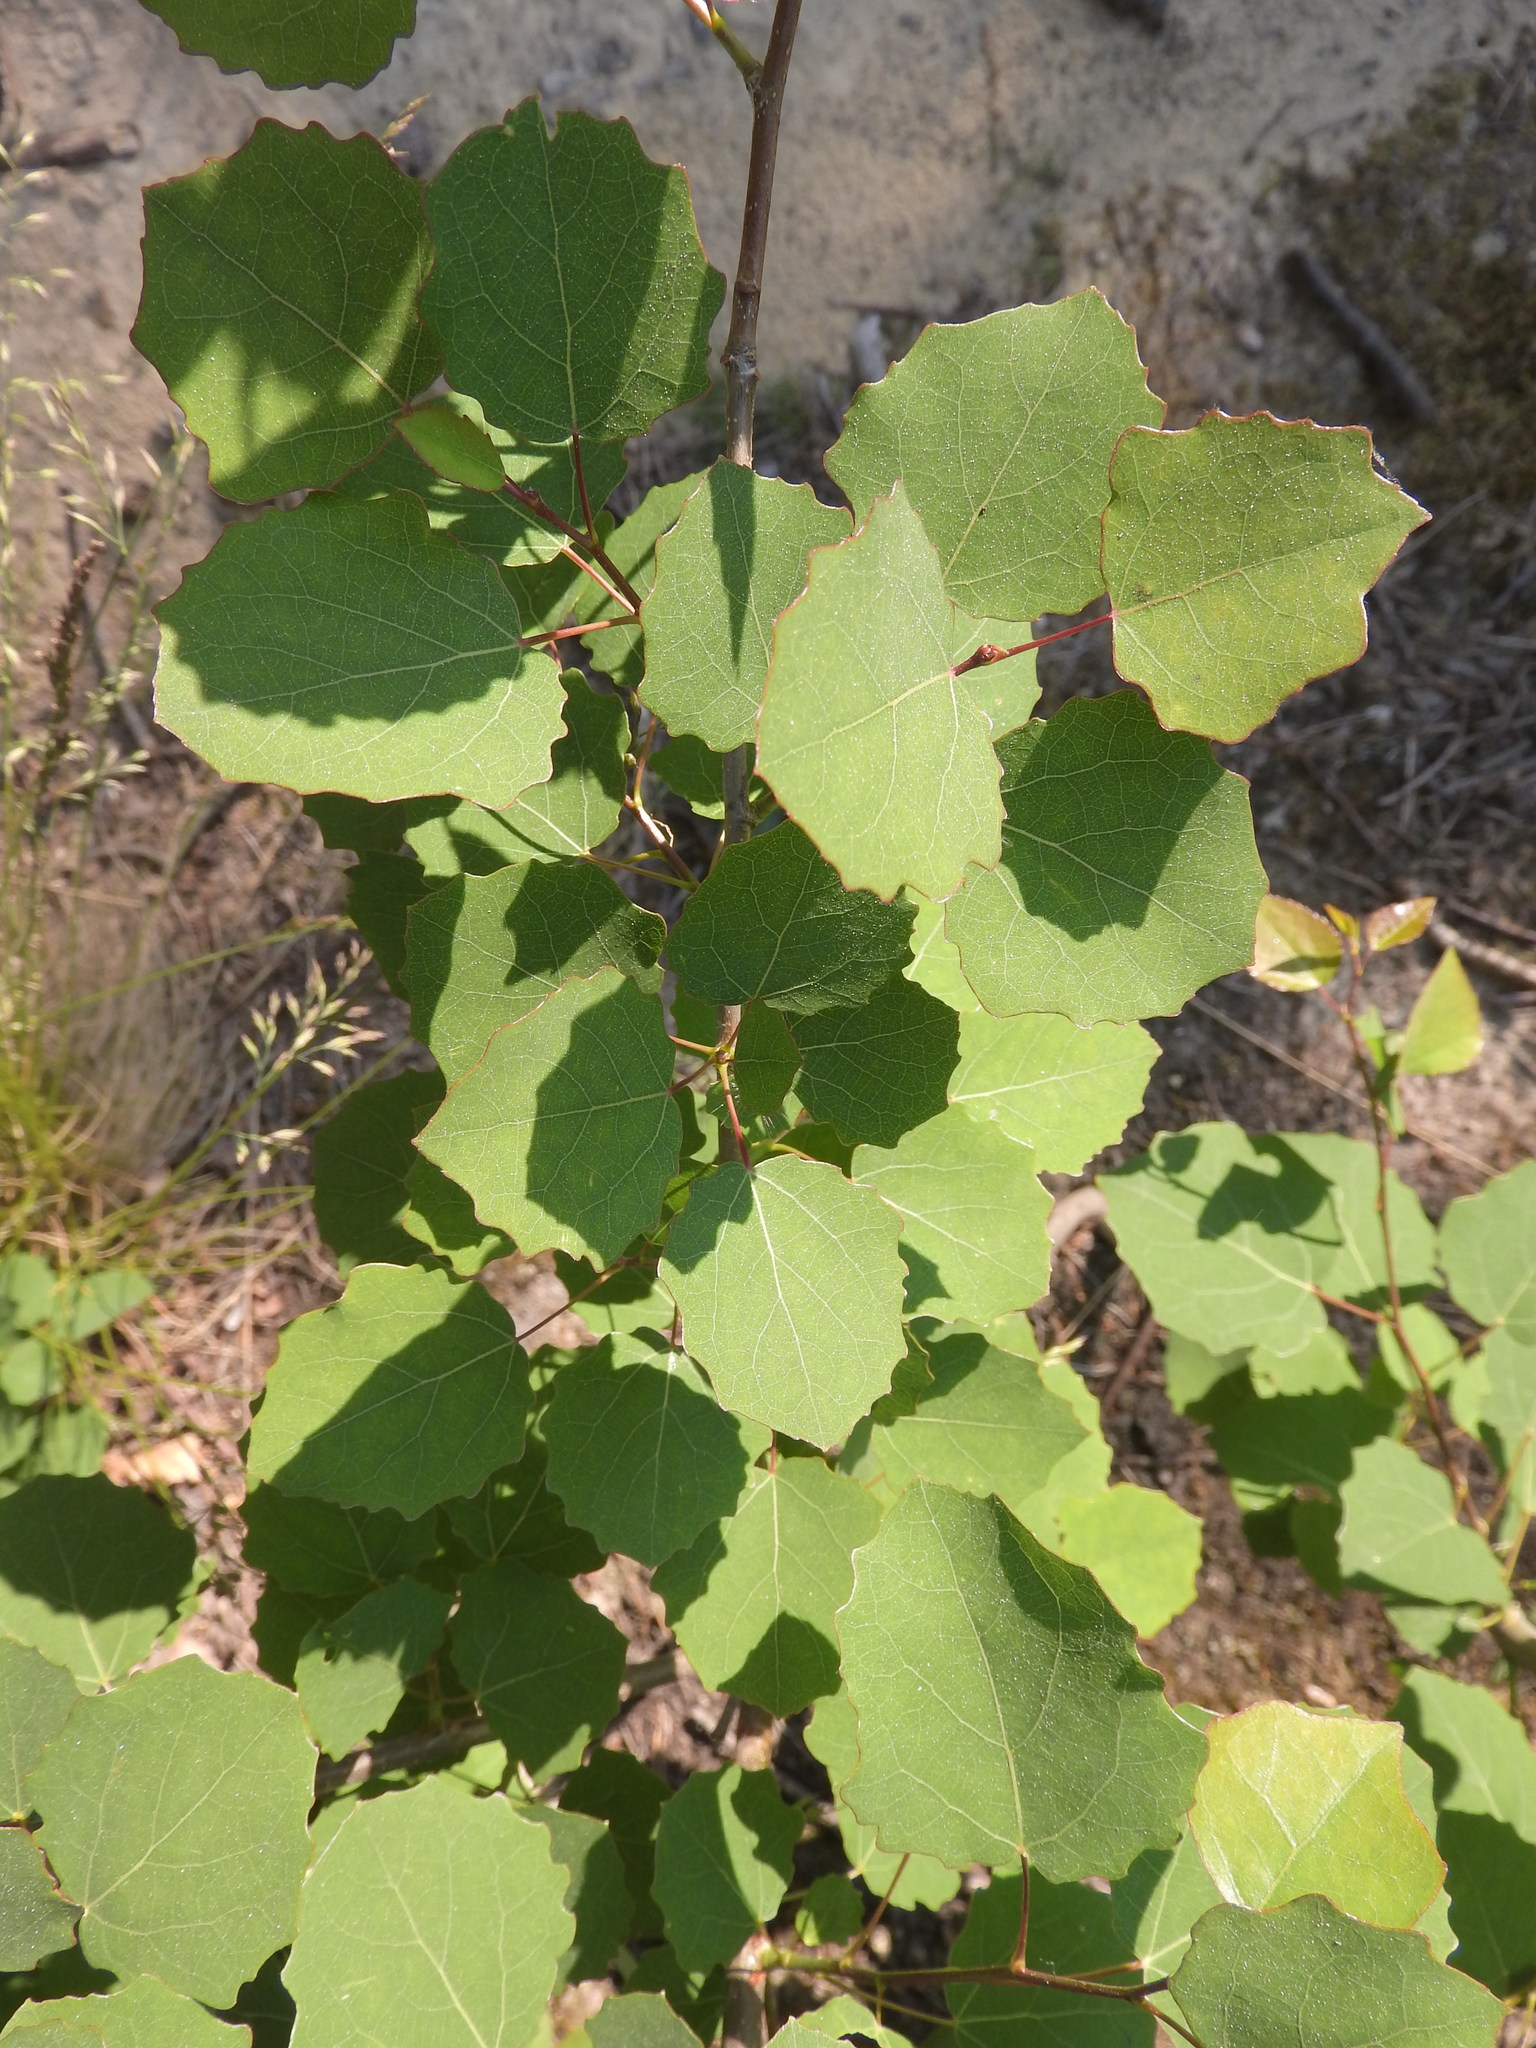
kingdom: Plantae
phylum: Tracheophyta
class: Magnoliopsida
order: Malpighiales
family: Salicaceae
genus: Populus
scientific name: Populus tremula
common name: European aspen
